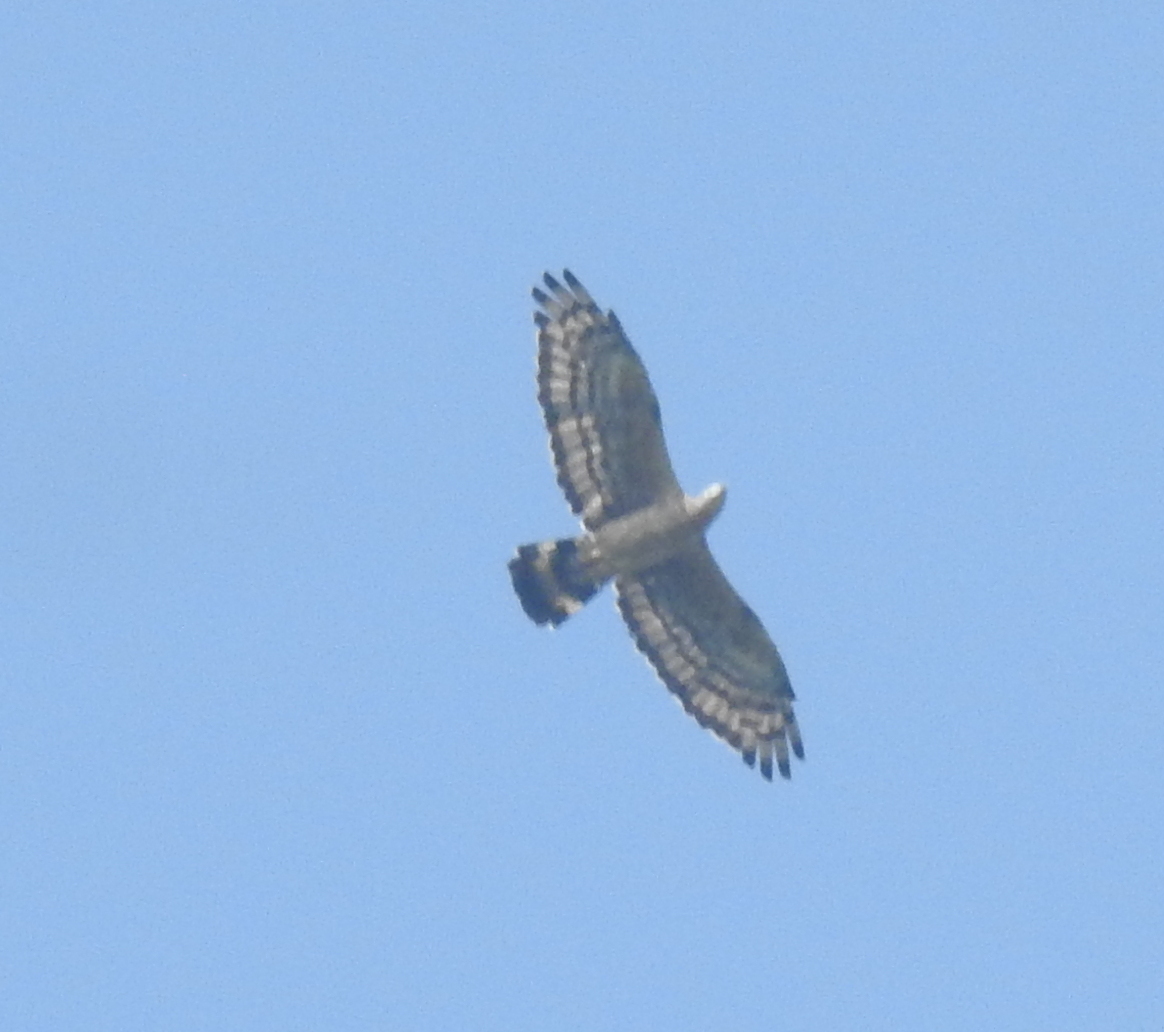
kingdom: Animalia
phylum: Chordata
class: Aves
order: Accipitriformes
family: Accipitridae
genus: Pernis
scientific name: Pernis ptilorhynchus
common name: Crested honey buzzard
